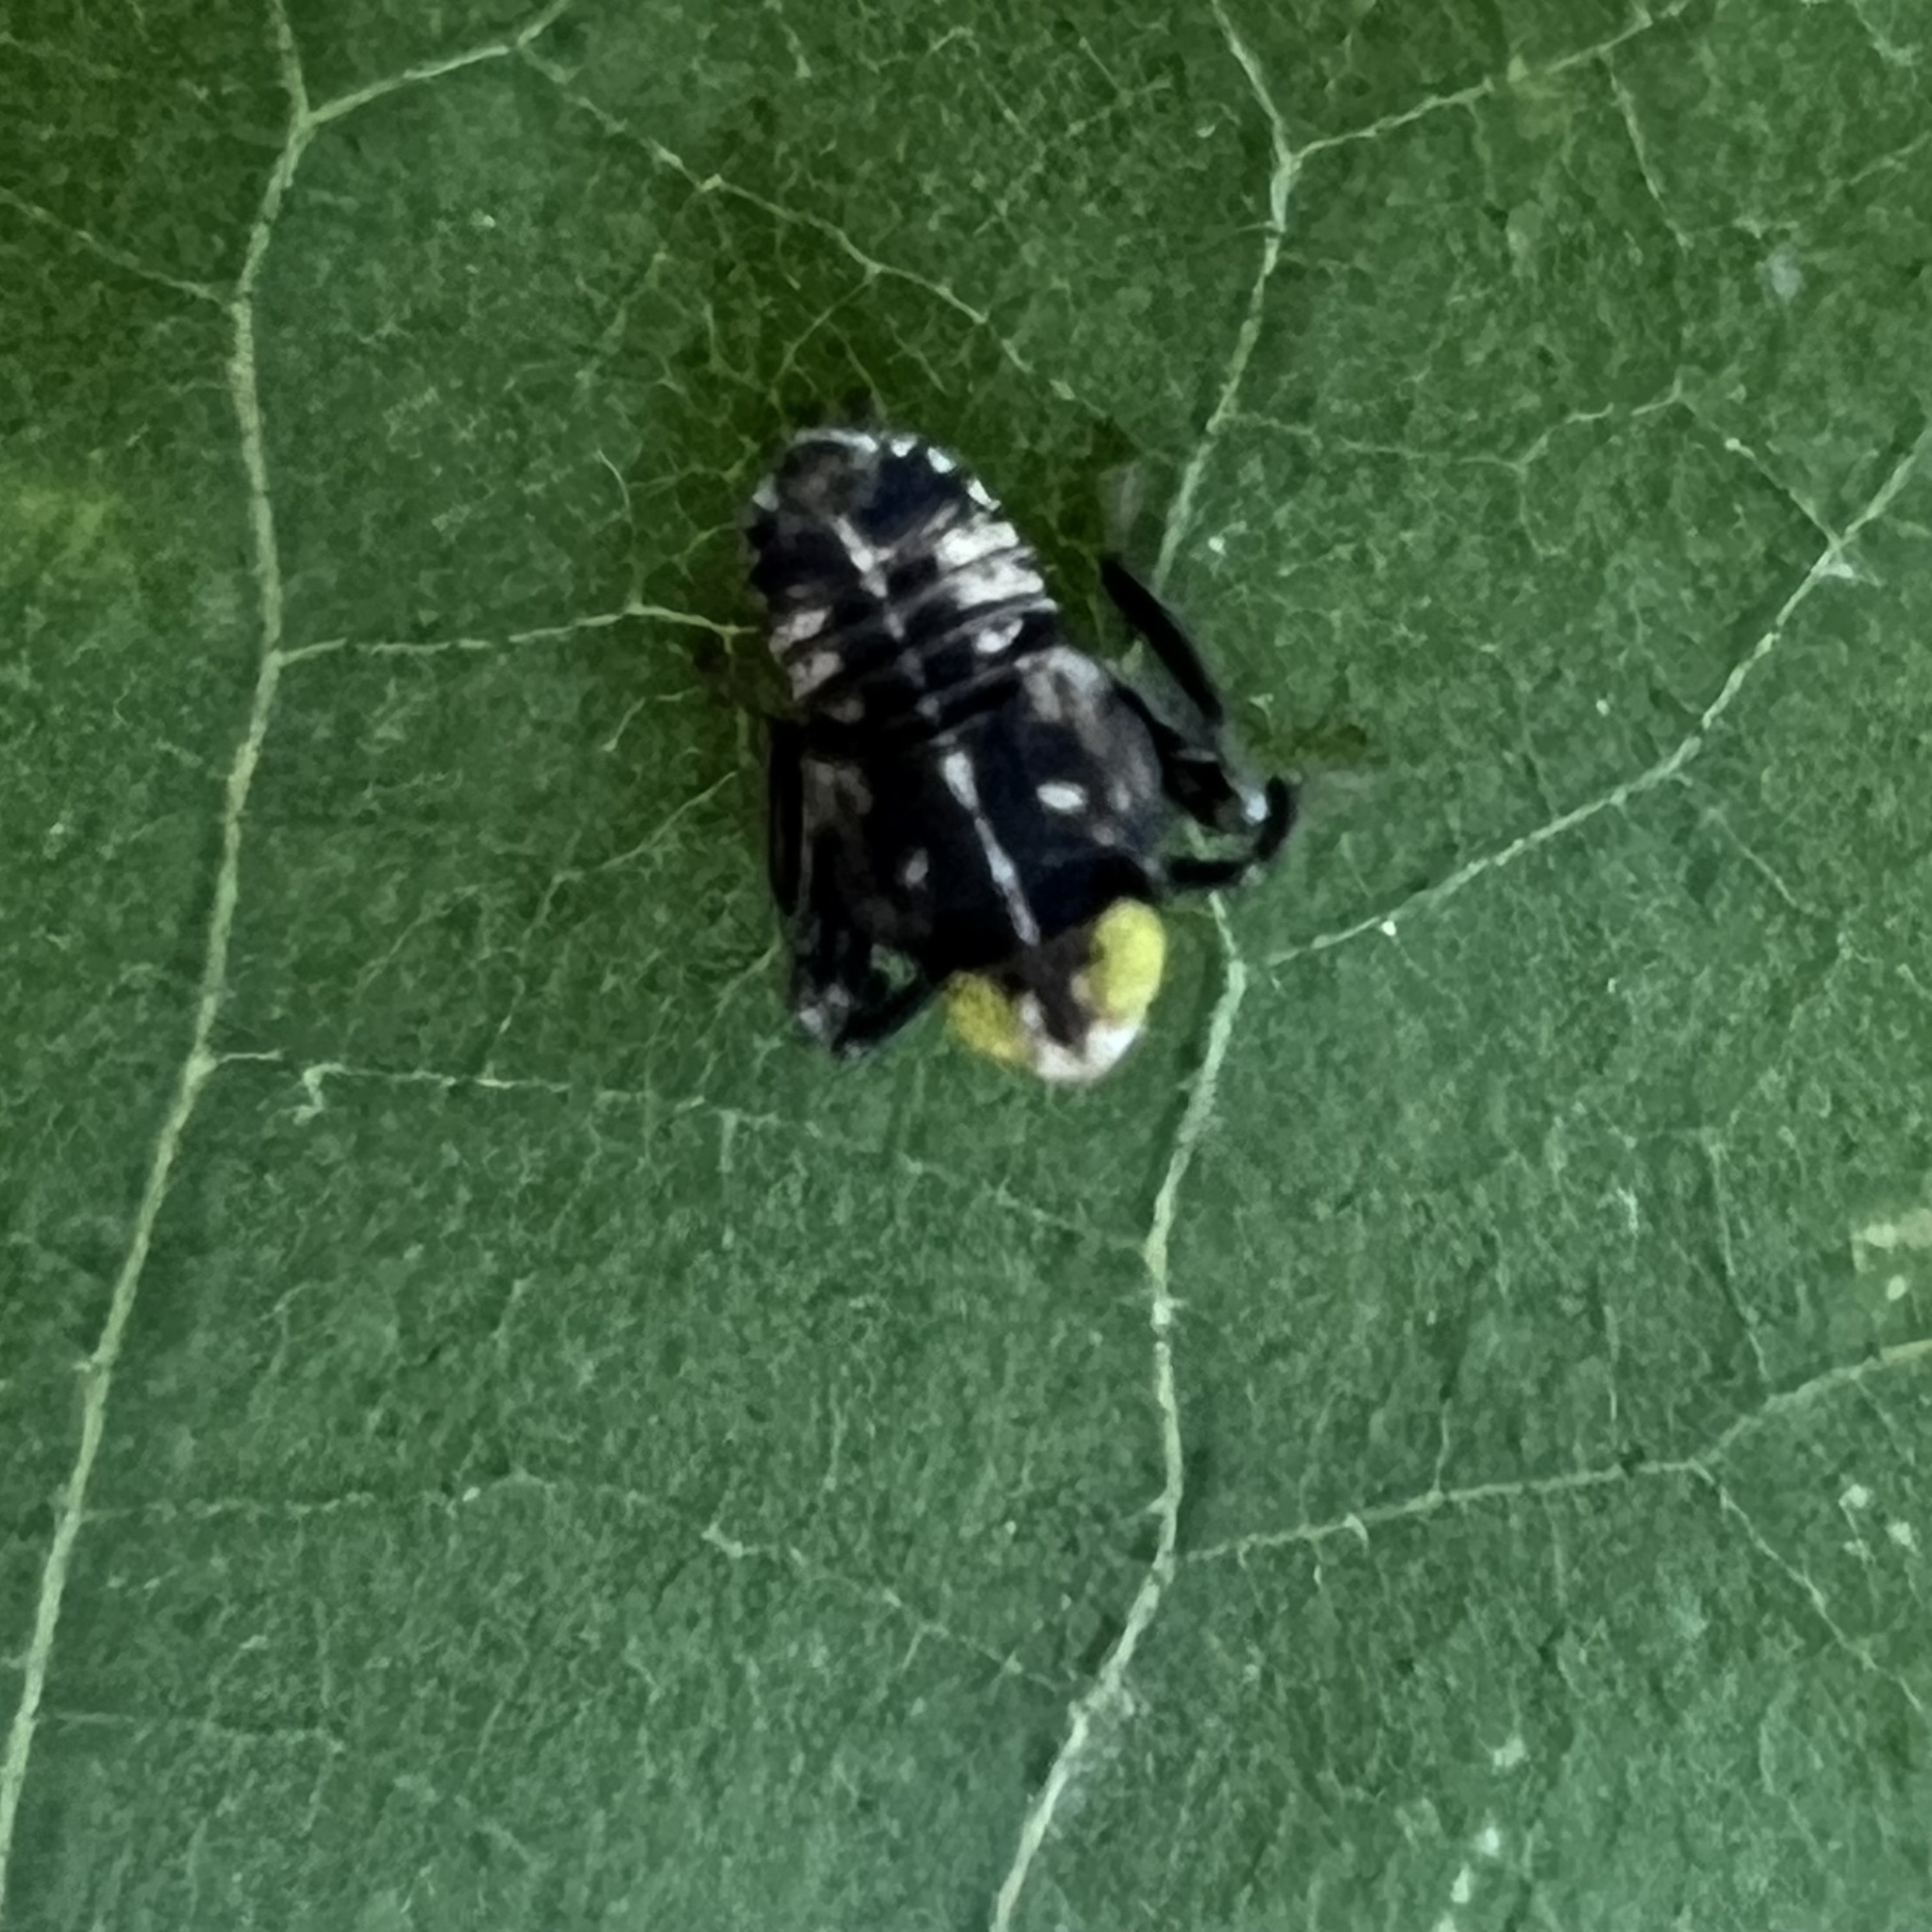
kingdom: Animalia
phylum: Arthropoda
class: Insecta
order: Hemiptera
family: Cicadellidae
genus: Jikradia
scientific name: Jikradia olitoria
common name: Coppery leafhopper
